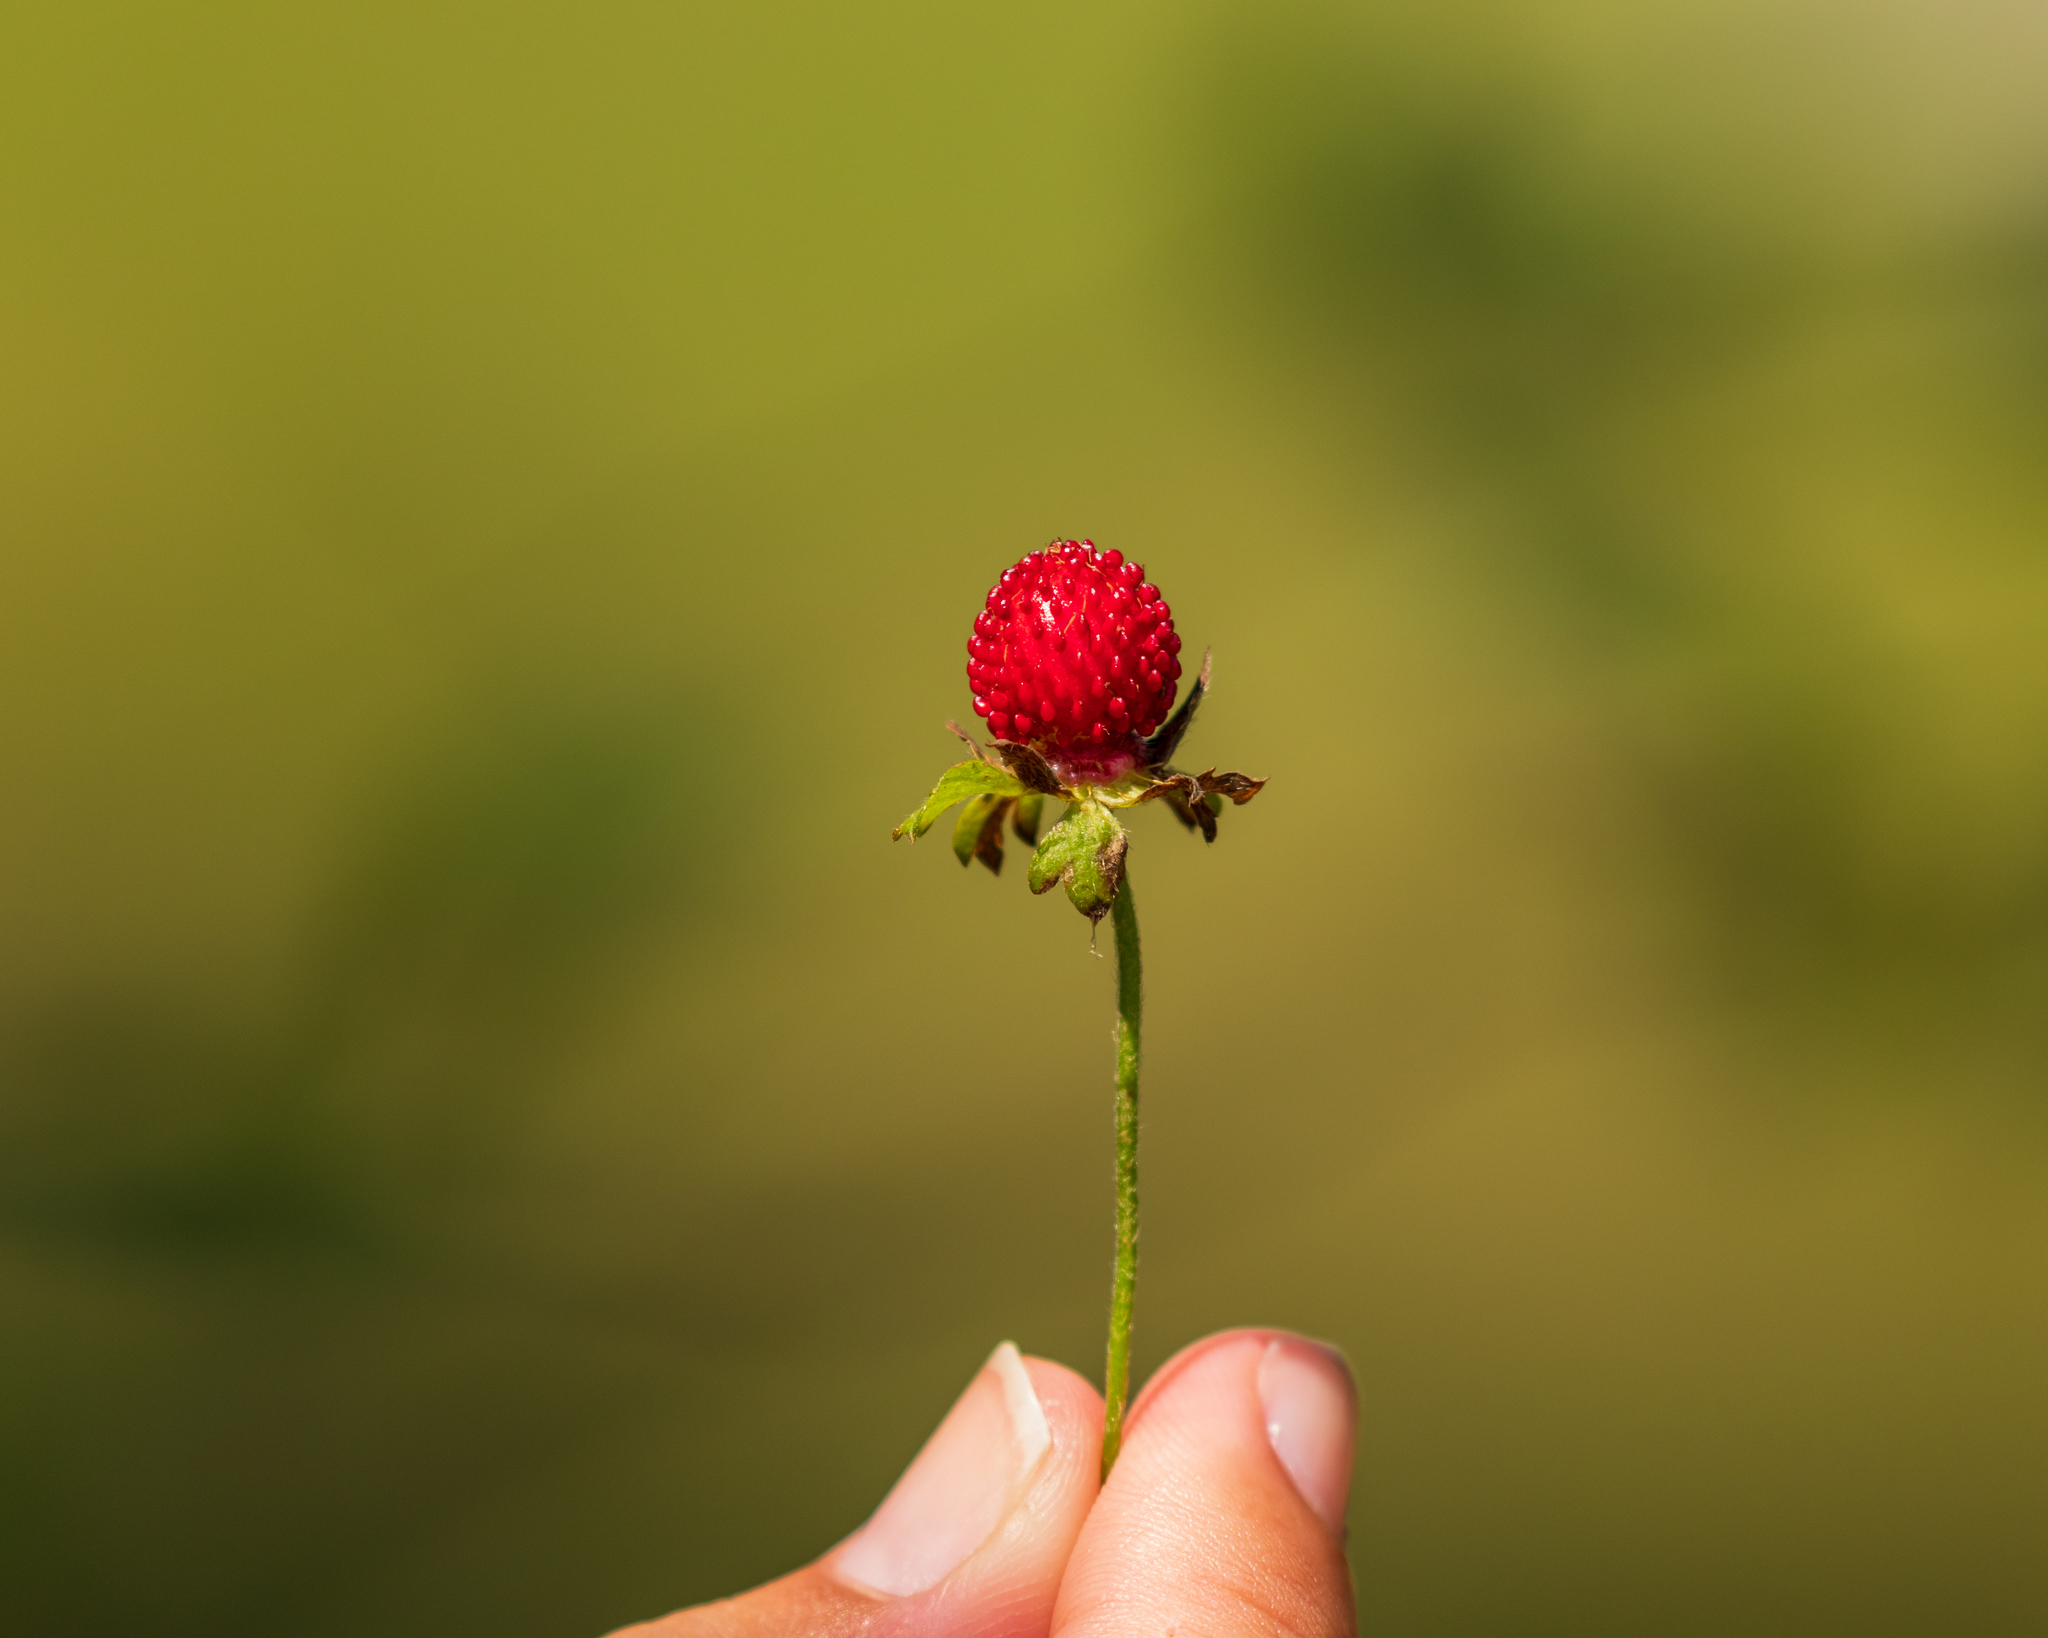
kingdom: Plantae
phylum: Tracheophyta
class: Magnoliopsida
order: Rosales
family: Rosaceae
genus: Potentilla
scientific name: Potentilla indica
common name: Yellow-flowered strawberry
